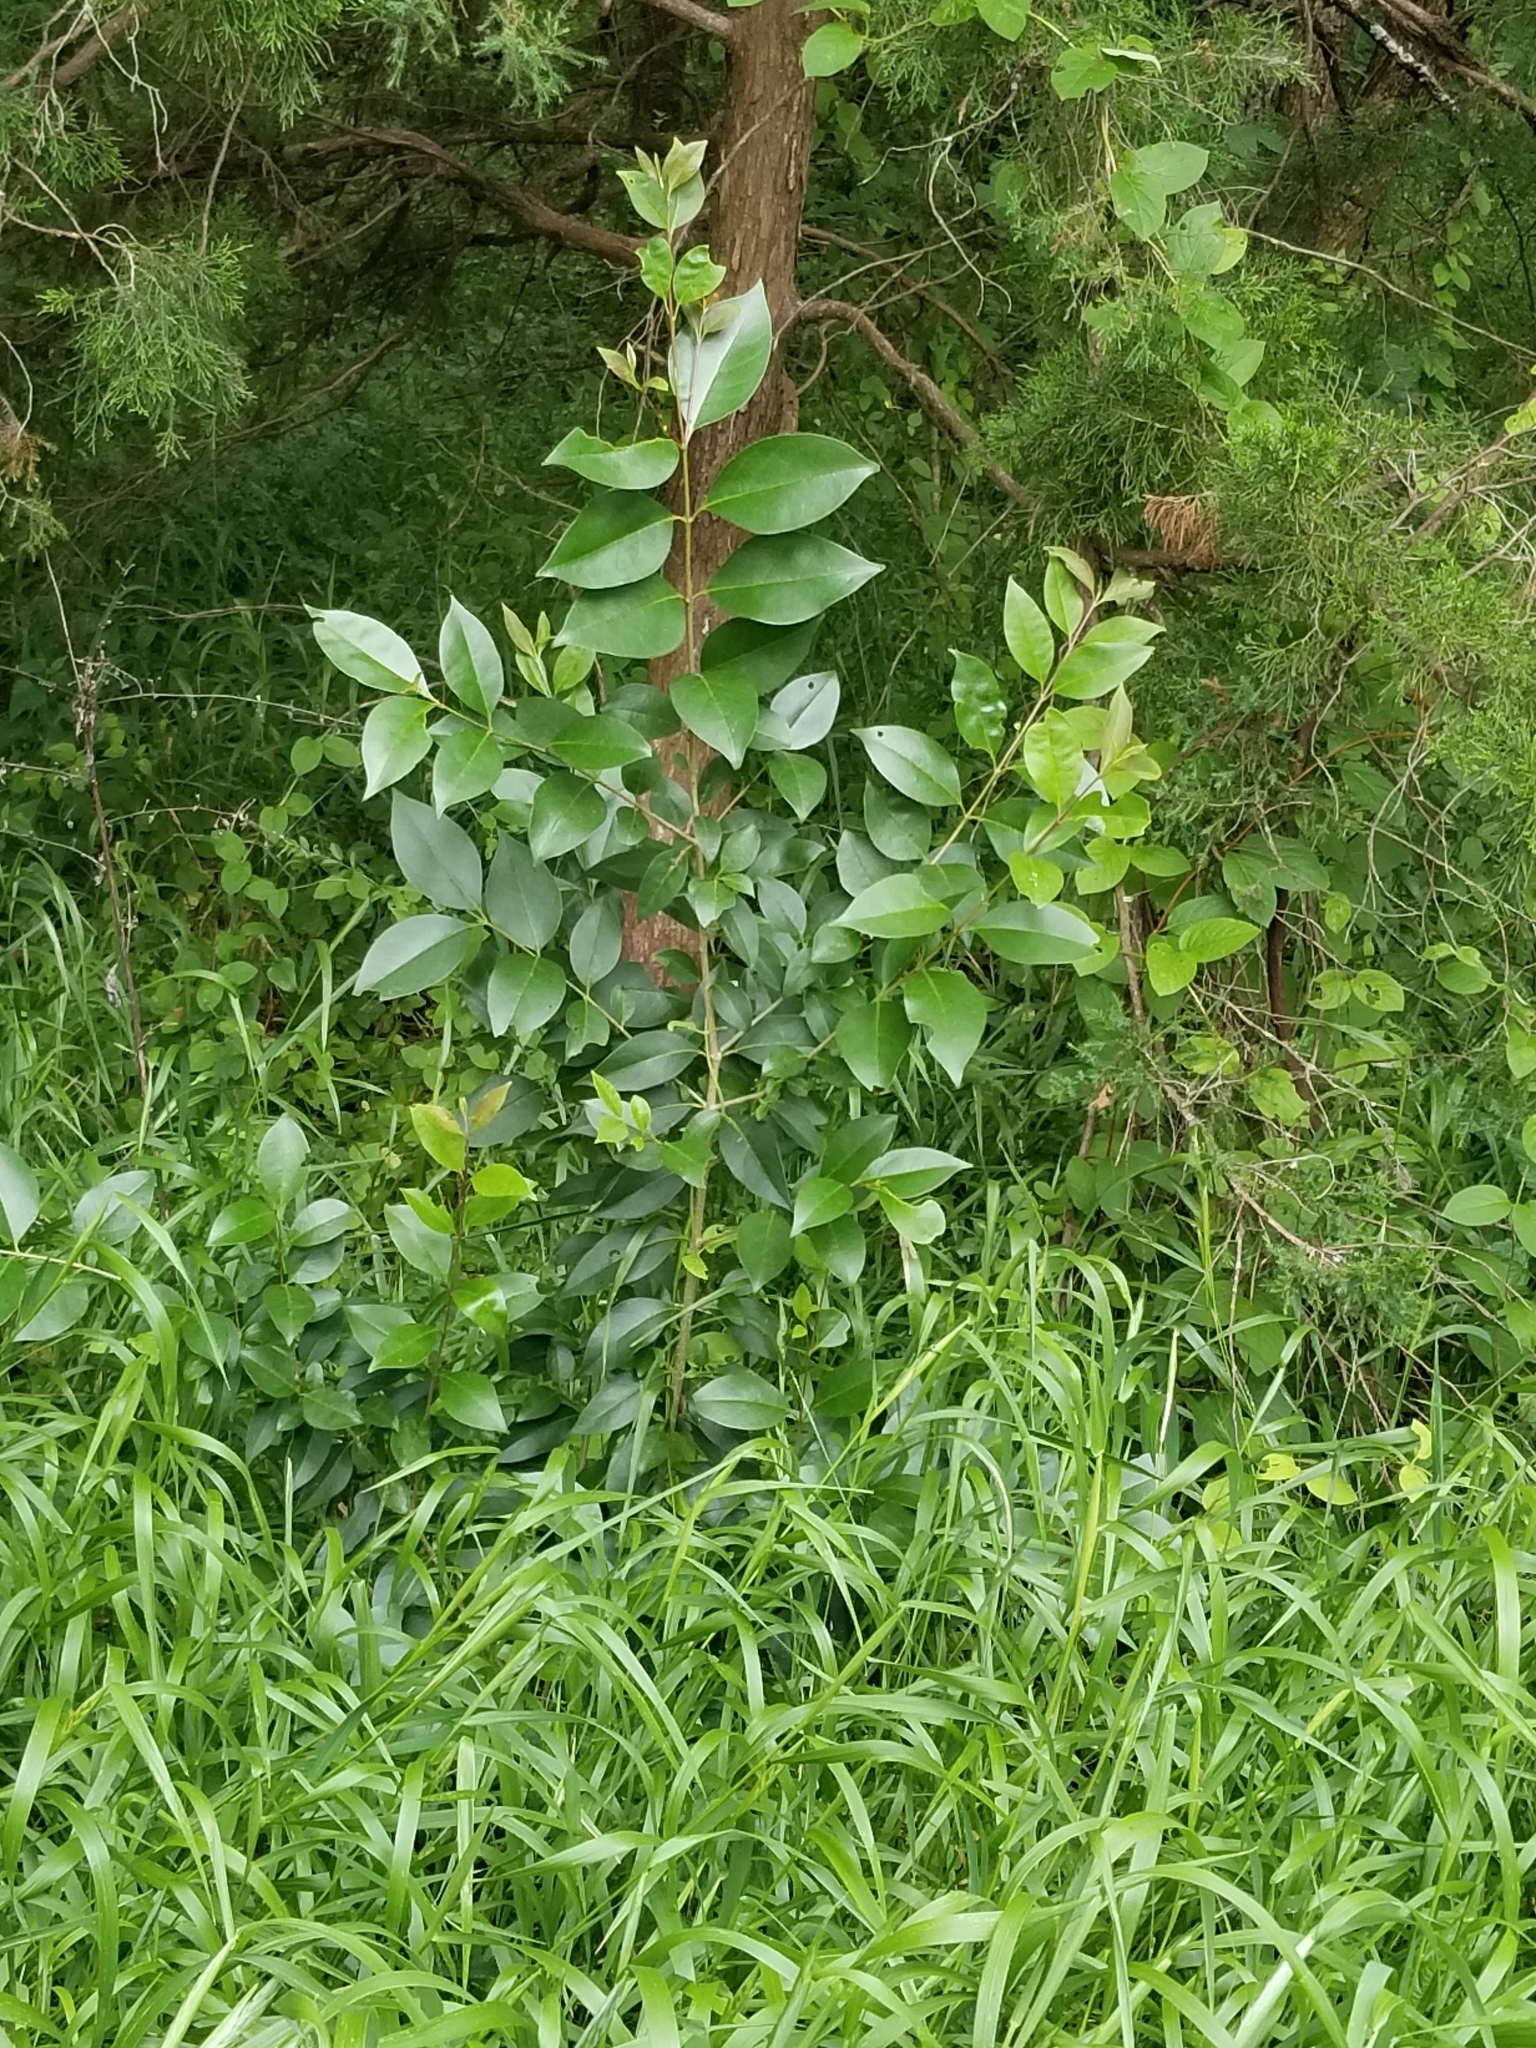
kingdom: Plantae
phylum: Tracheophyta
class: Magnoliopsida
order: Lamiales
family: Oleaceae
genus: Ligustrum
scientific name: Ligustrum lucidum
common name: Glossy privet
